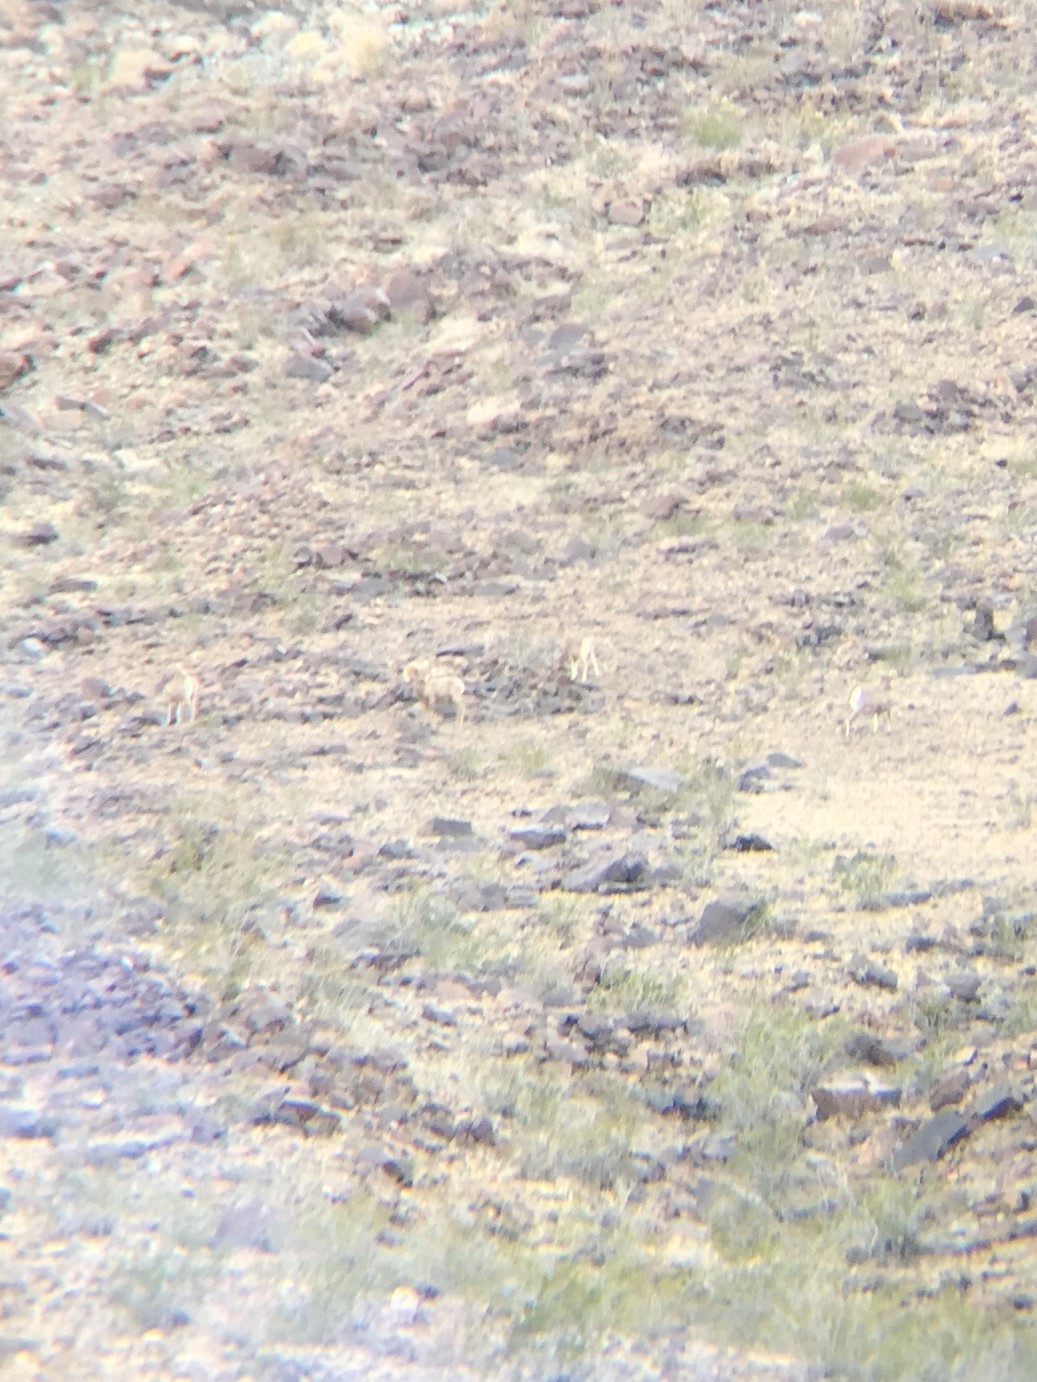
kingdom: Animalia
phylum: Chordata
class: Mammalia
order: Artiodactyla
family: Bovidae
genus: Ovis
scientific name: Ovis canadensis
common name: Bighorn sheep
